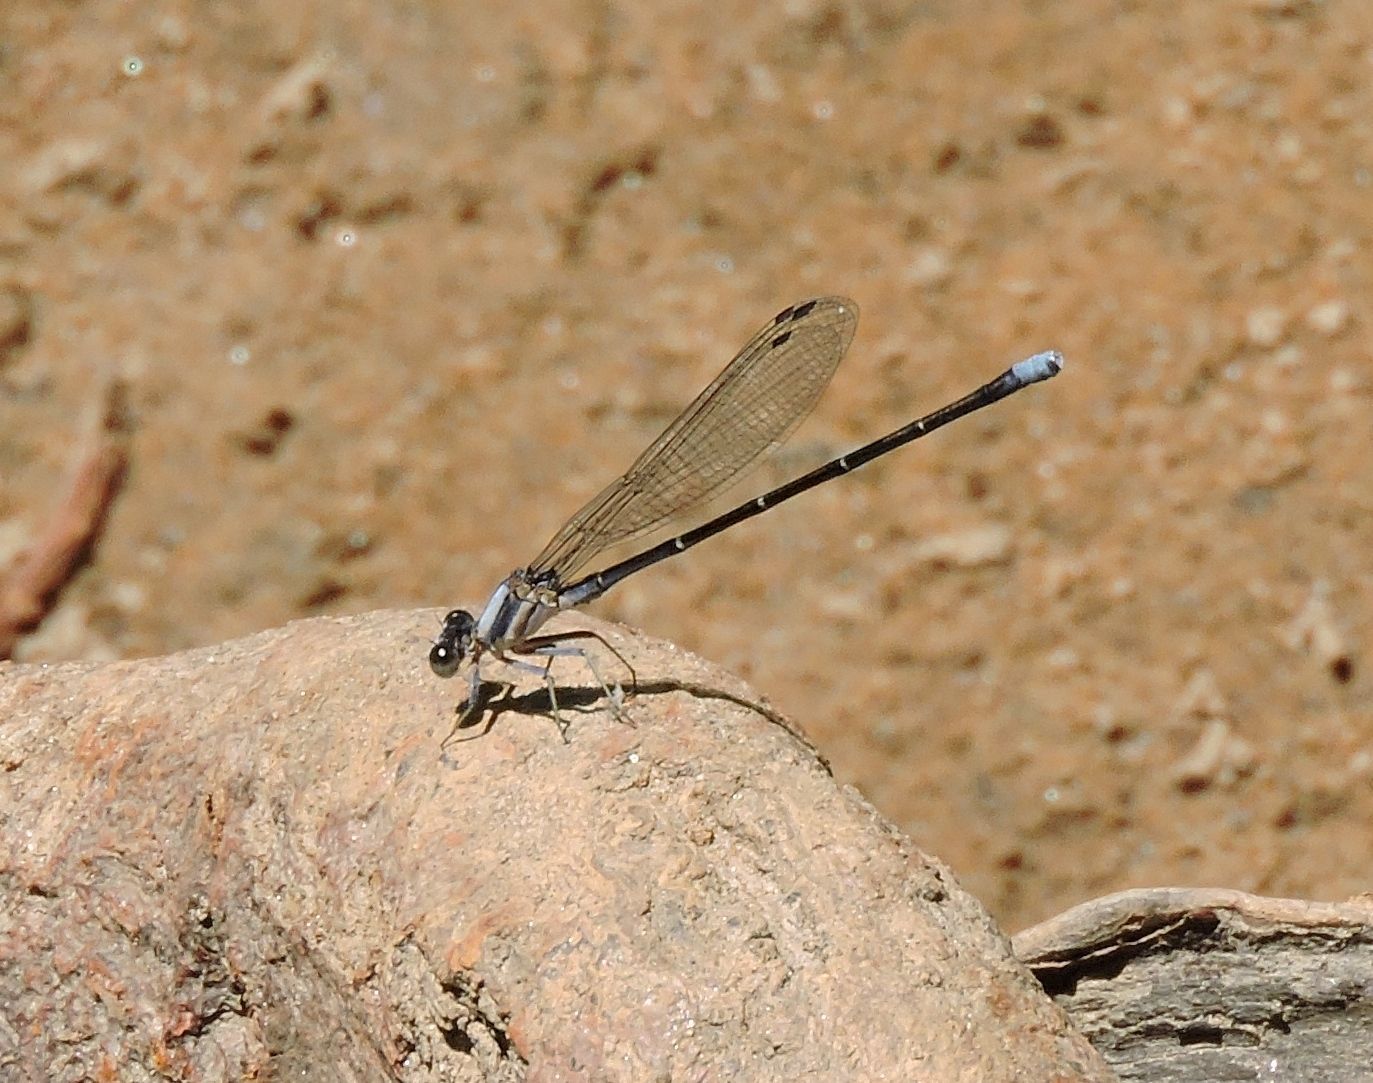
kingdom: Animalia
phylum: Arthropoda
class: Insecta
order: Odonata
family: Coenagrionidae
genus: Argia
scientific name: Argia moesta
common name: Powdered dancer
